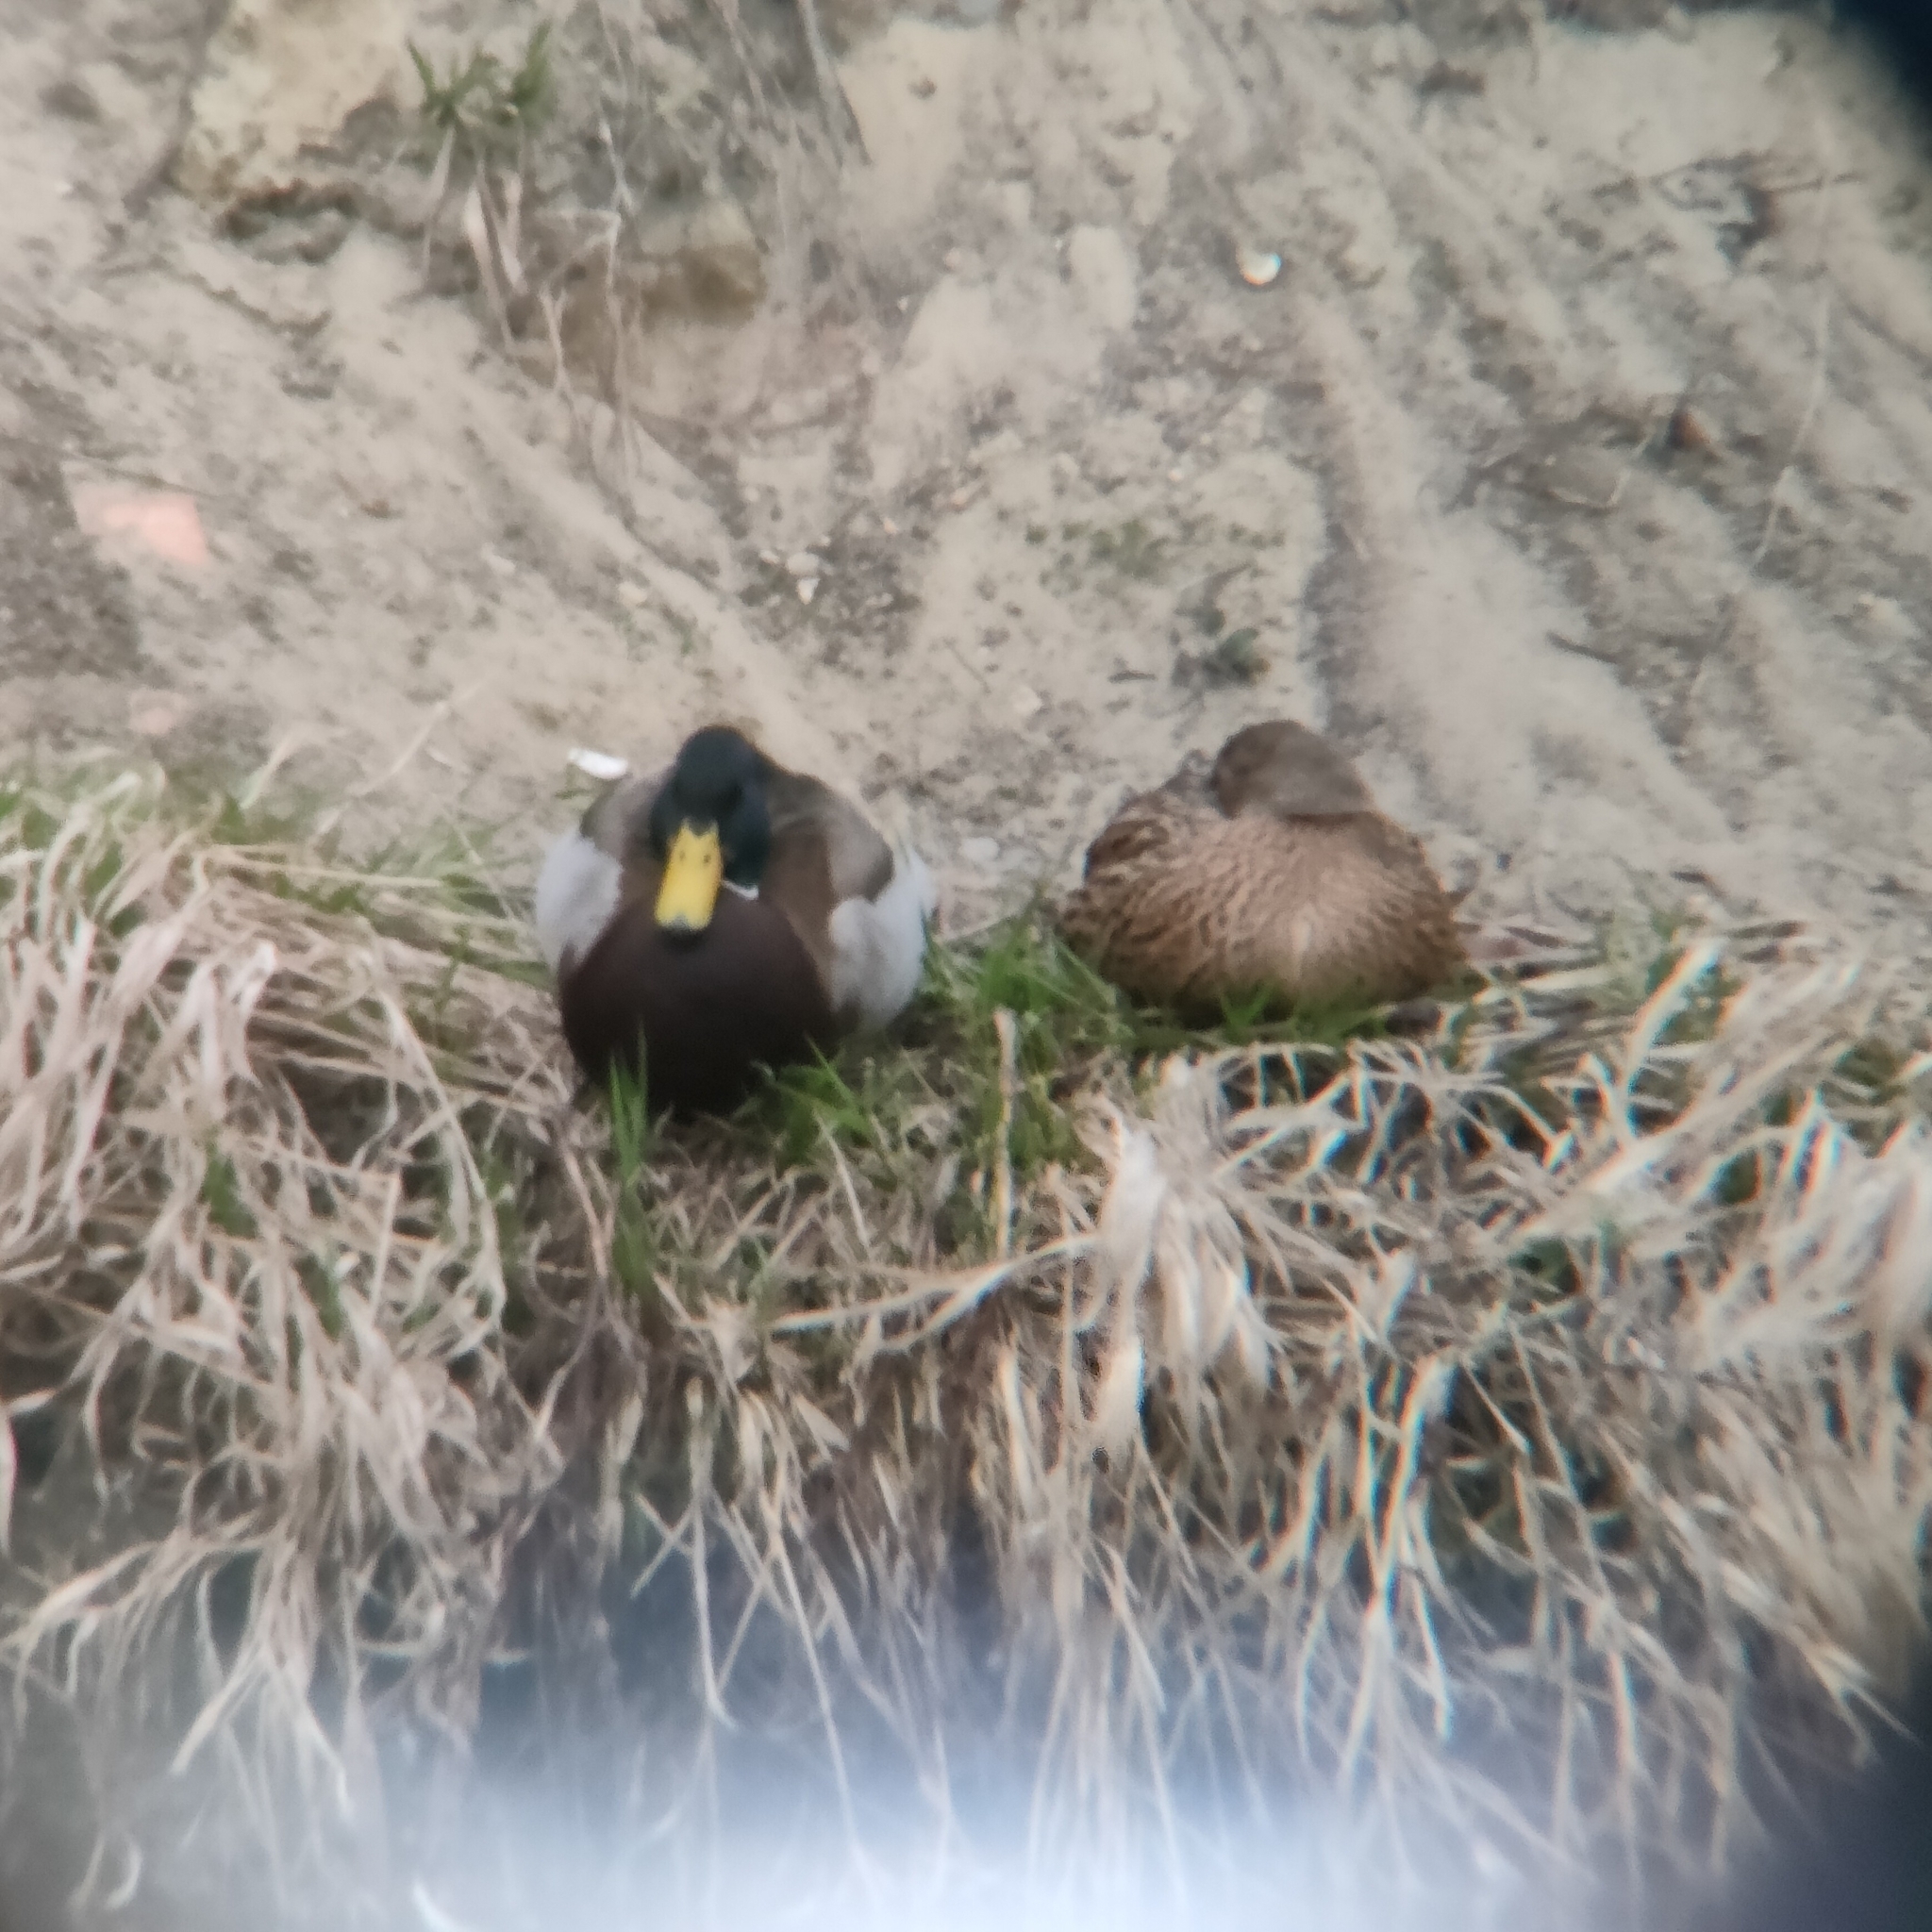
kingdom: Animalia
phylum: Chordata
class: Aves
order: Anseriformes
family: Anatidae
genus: Anas
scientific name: Anas platyrhynchos
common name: Mallard
